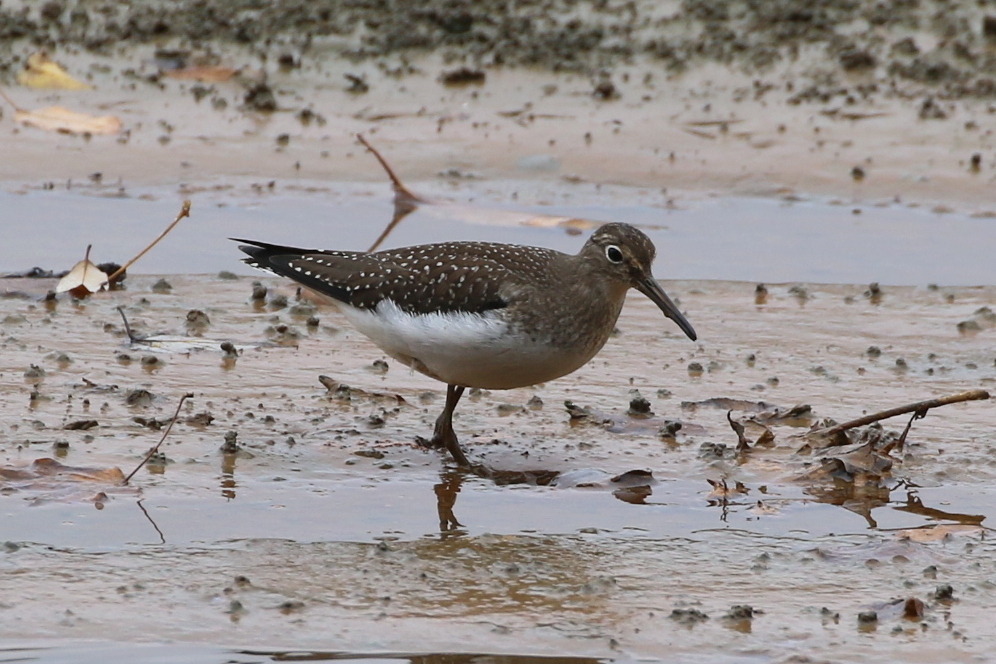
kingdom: Animalia
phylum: Chordata
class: Aves
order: Charadriiformes
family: Scolopacidae
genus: Tringa
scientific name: Tringa solitaria
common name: Solitary sandpiper
